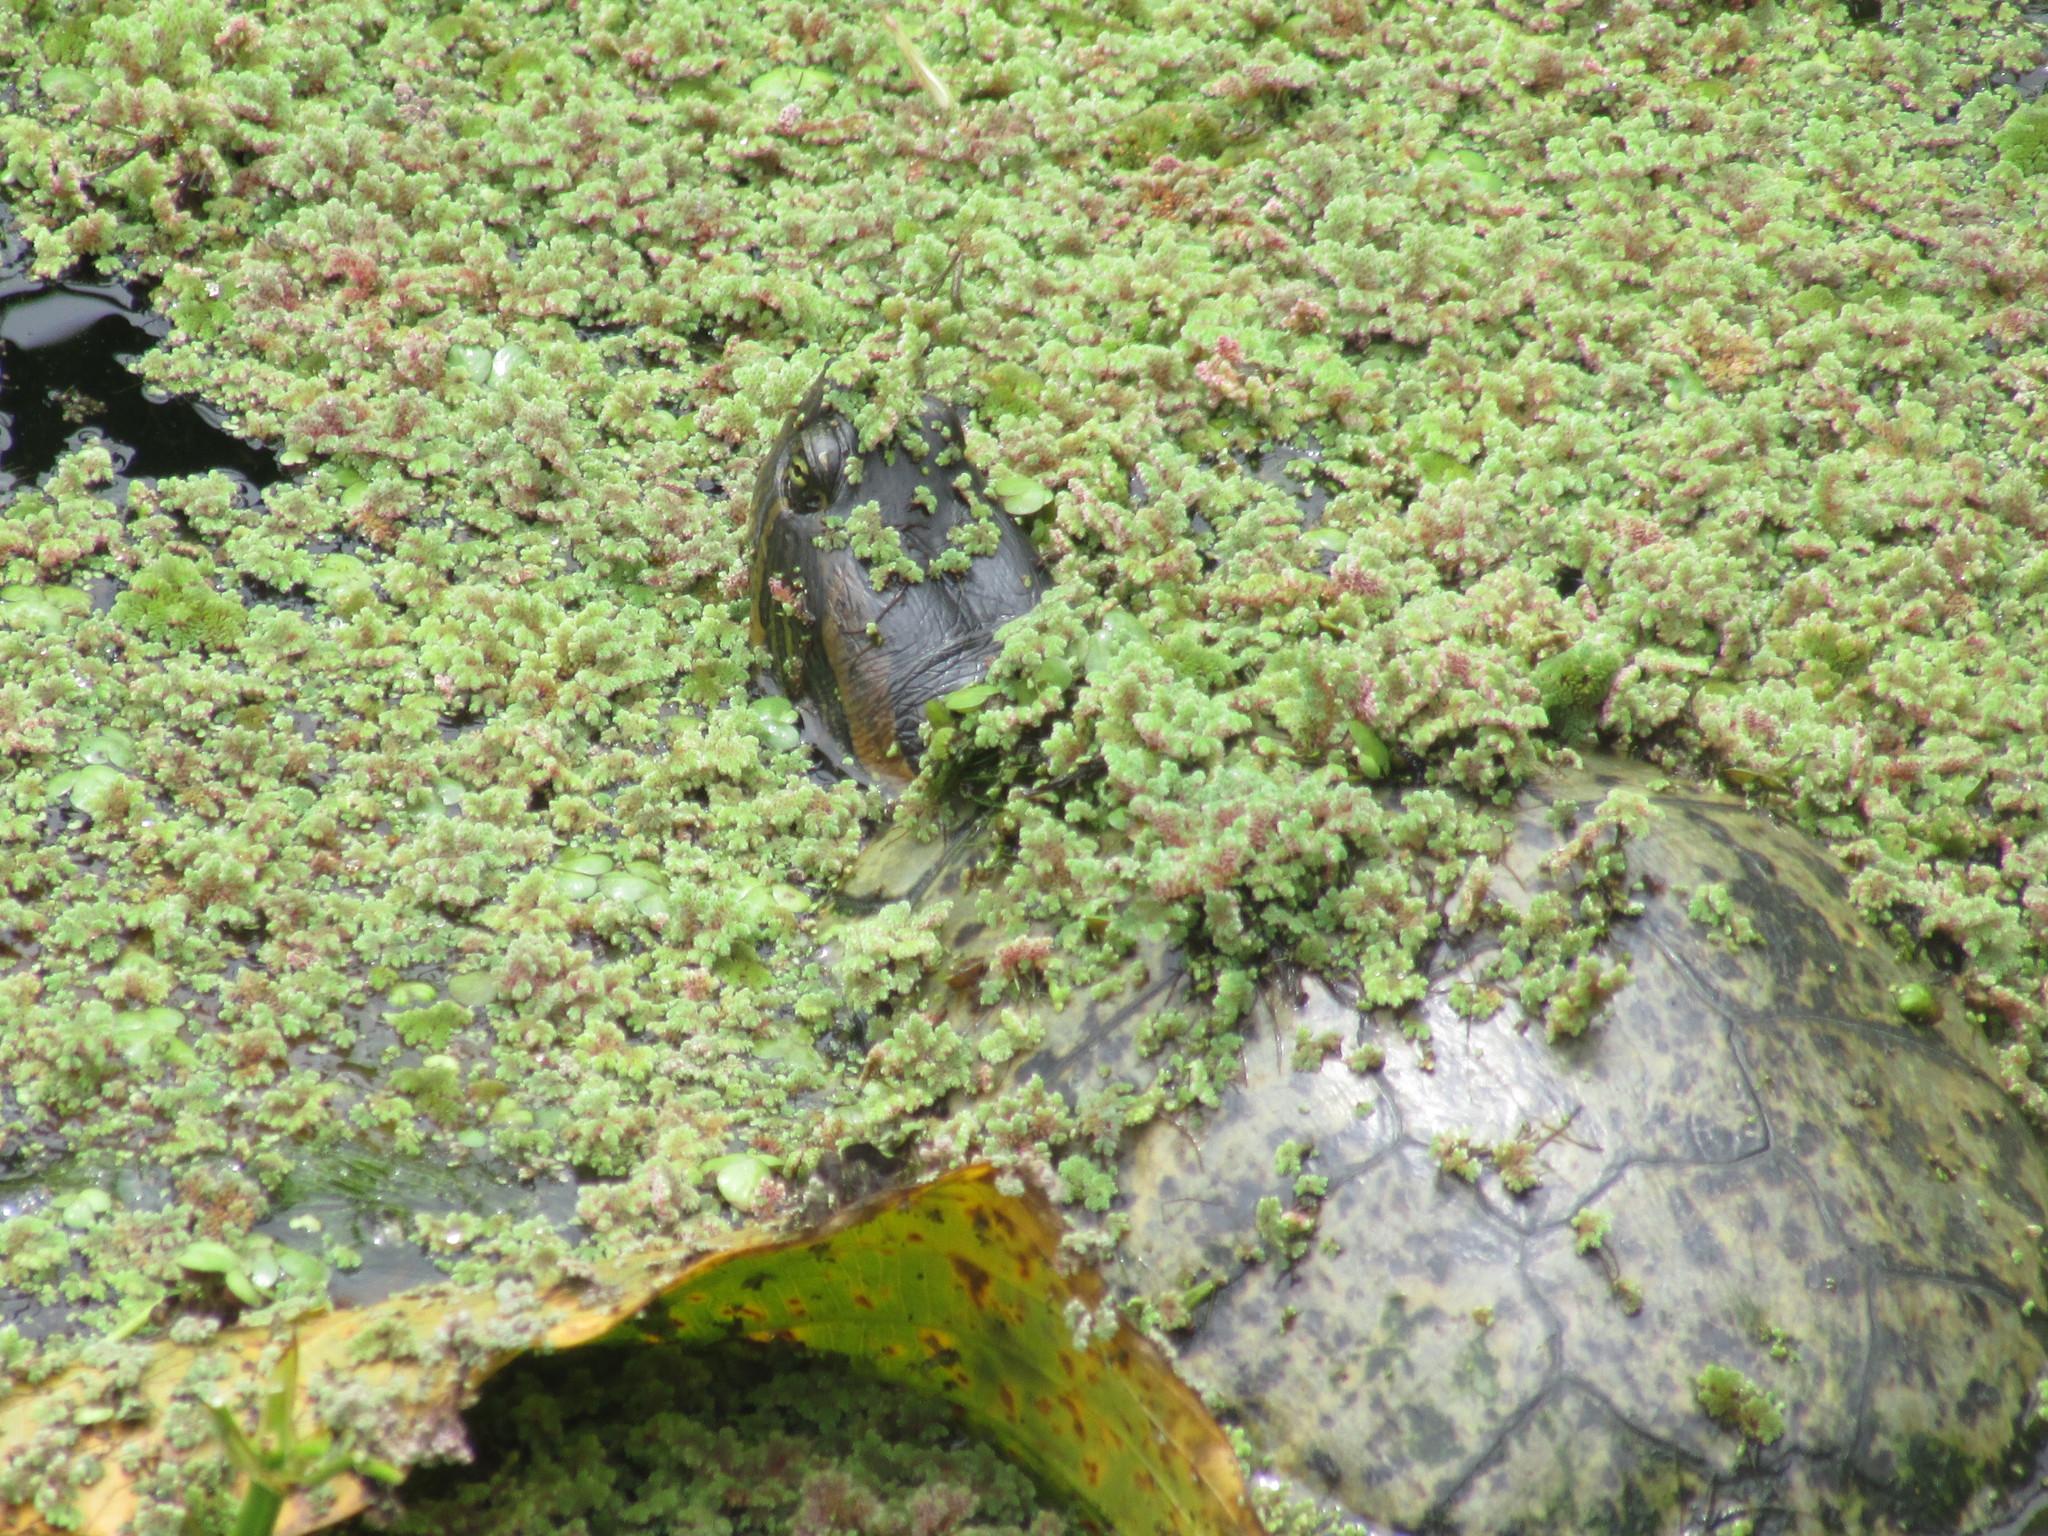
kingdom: Animalia
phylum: Chordata
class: Testudines
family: Emydidae
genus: Trachemys
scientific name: Trachemys dorbigni
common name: Black-bellied slider
